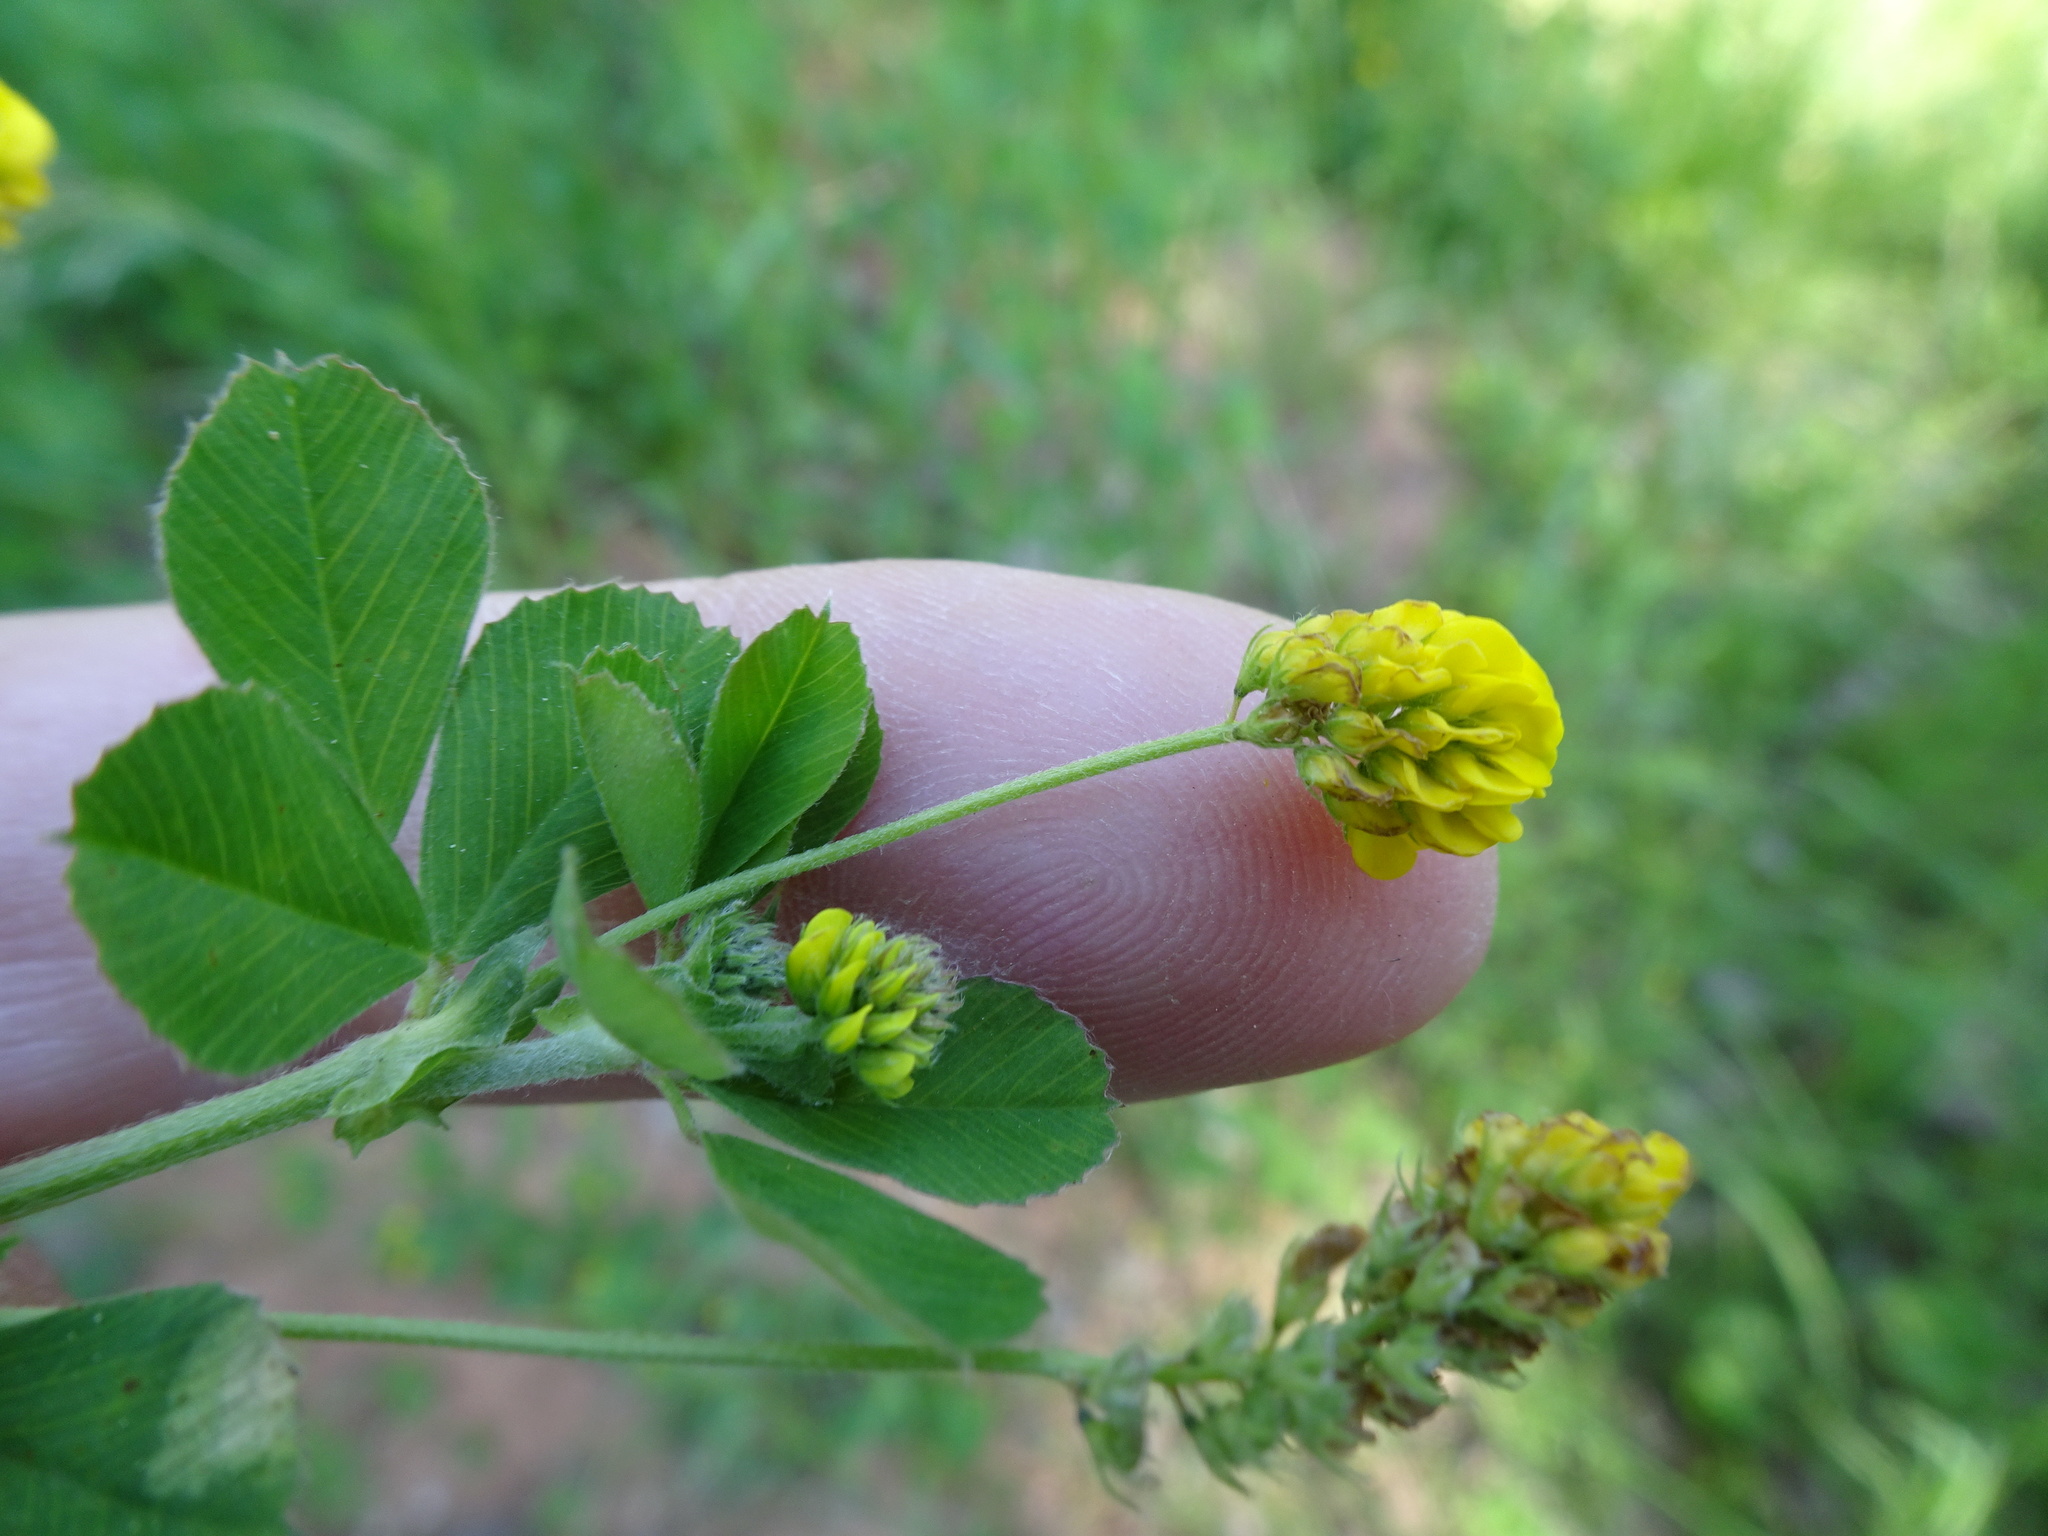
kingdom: Plantae
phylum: Tracheophyta
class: Magnoliopsida
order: Fabales
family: Fabaceae
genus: Medicago
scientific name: Medicago lupulina
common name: Black medick
